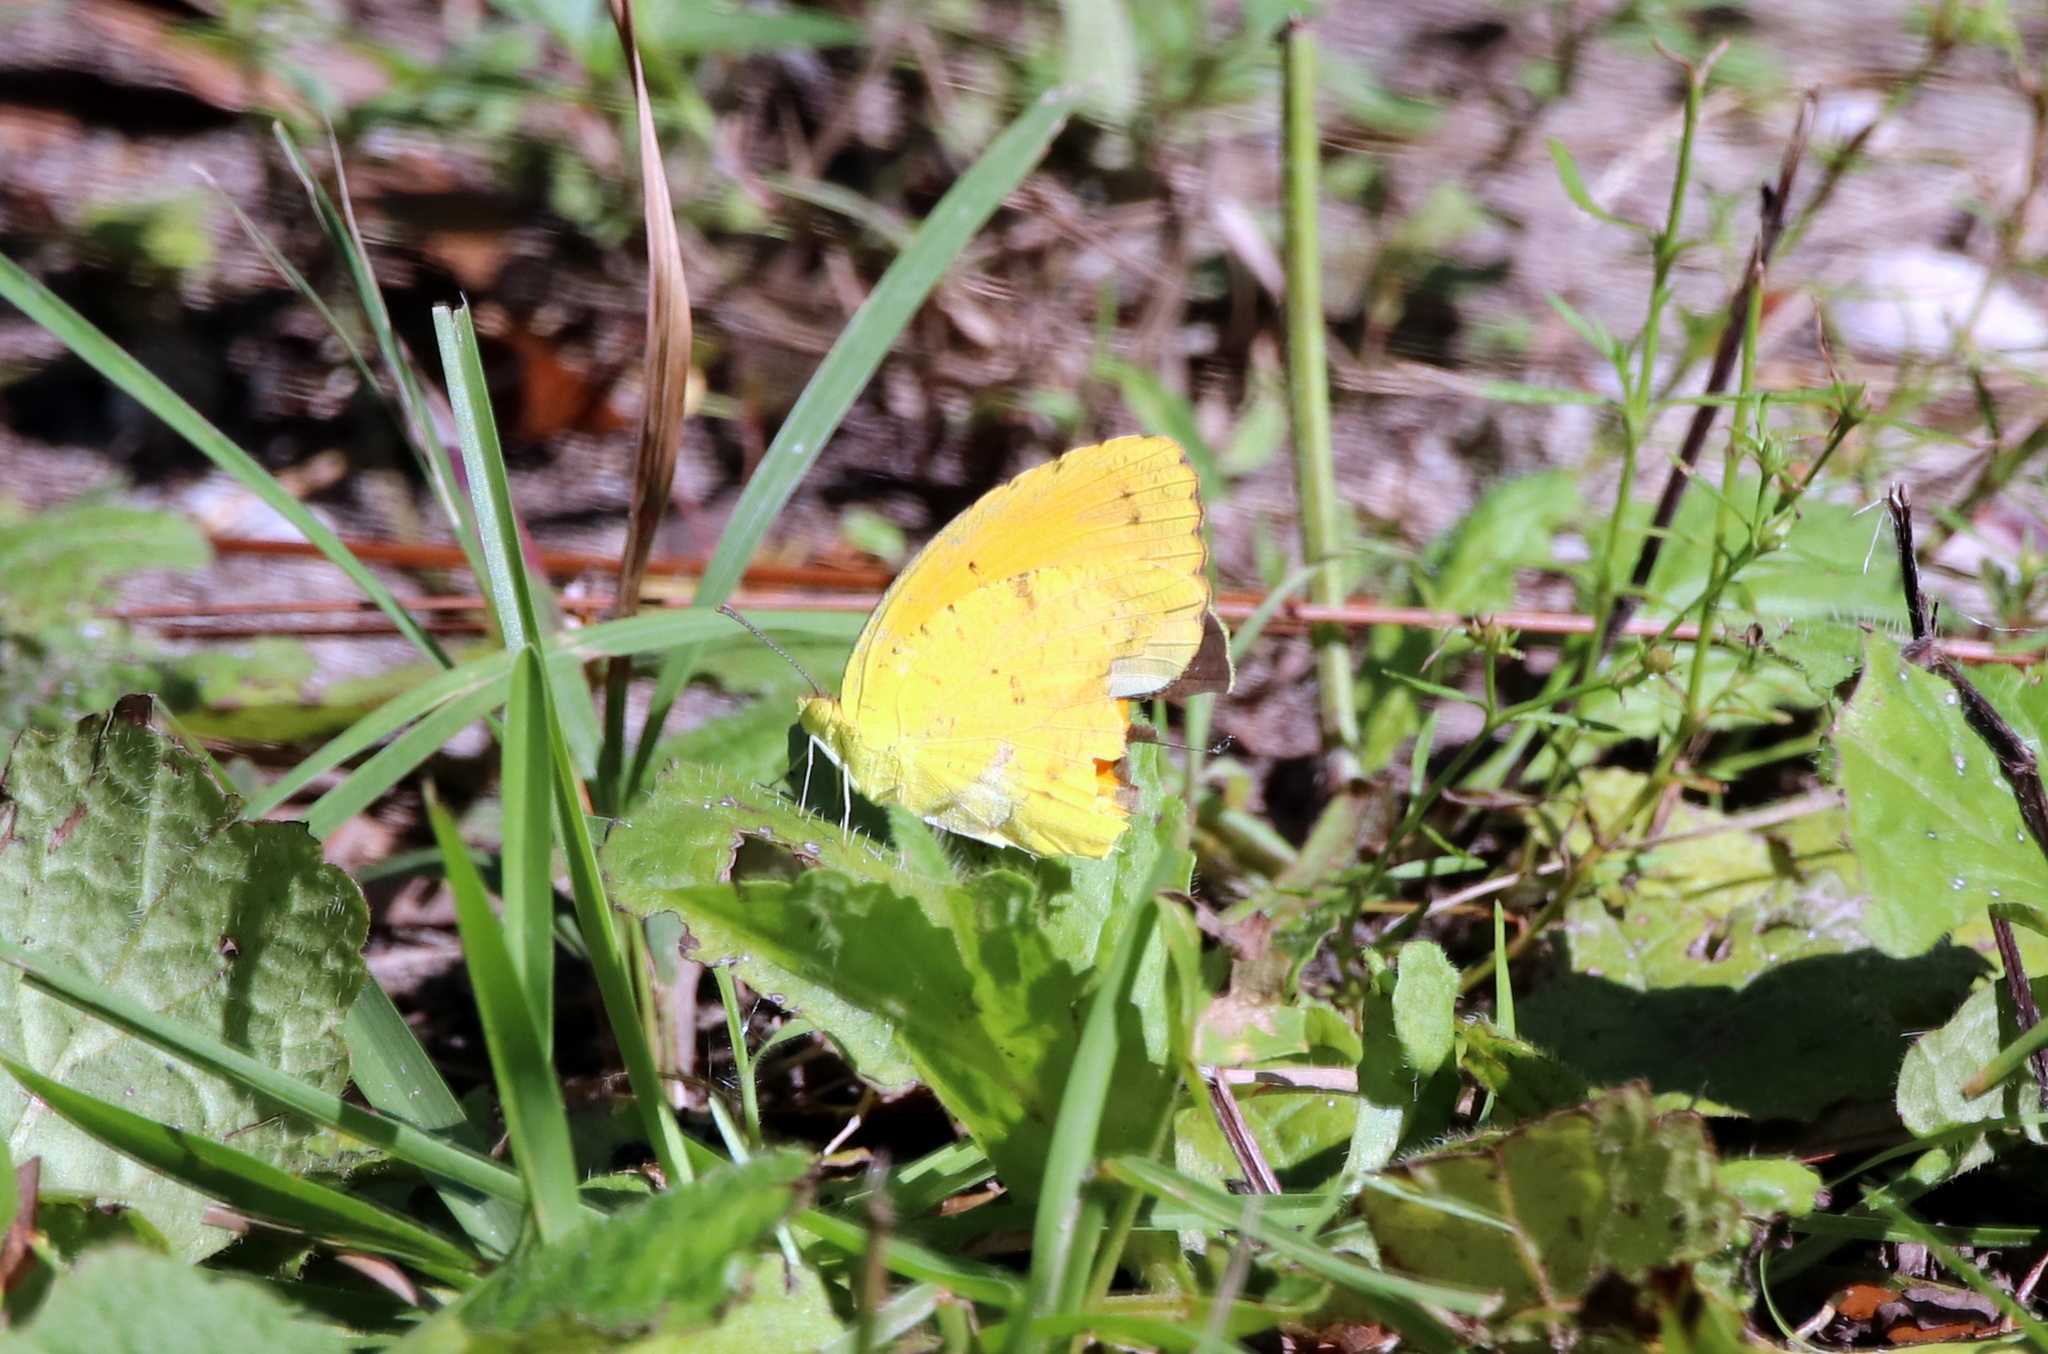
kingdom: Animalia
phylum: Arthropoda
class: Insecta
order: Lepidoptera
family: Pieridae
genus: Abaeis
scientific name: Abaeis nicippe
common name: Sleepy orange
